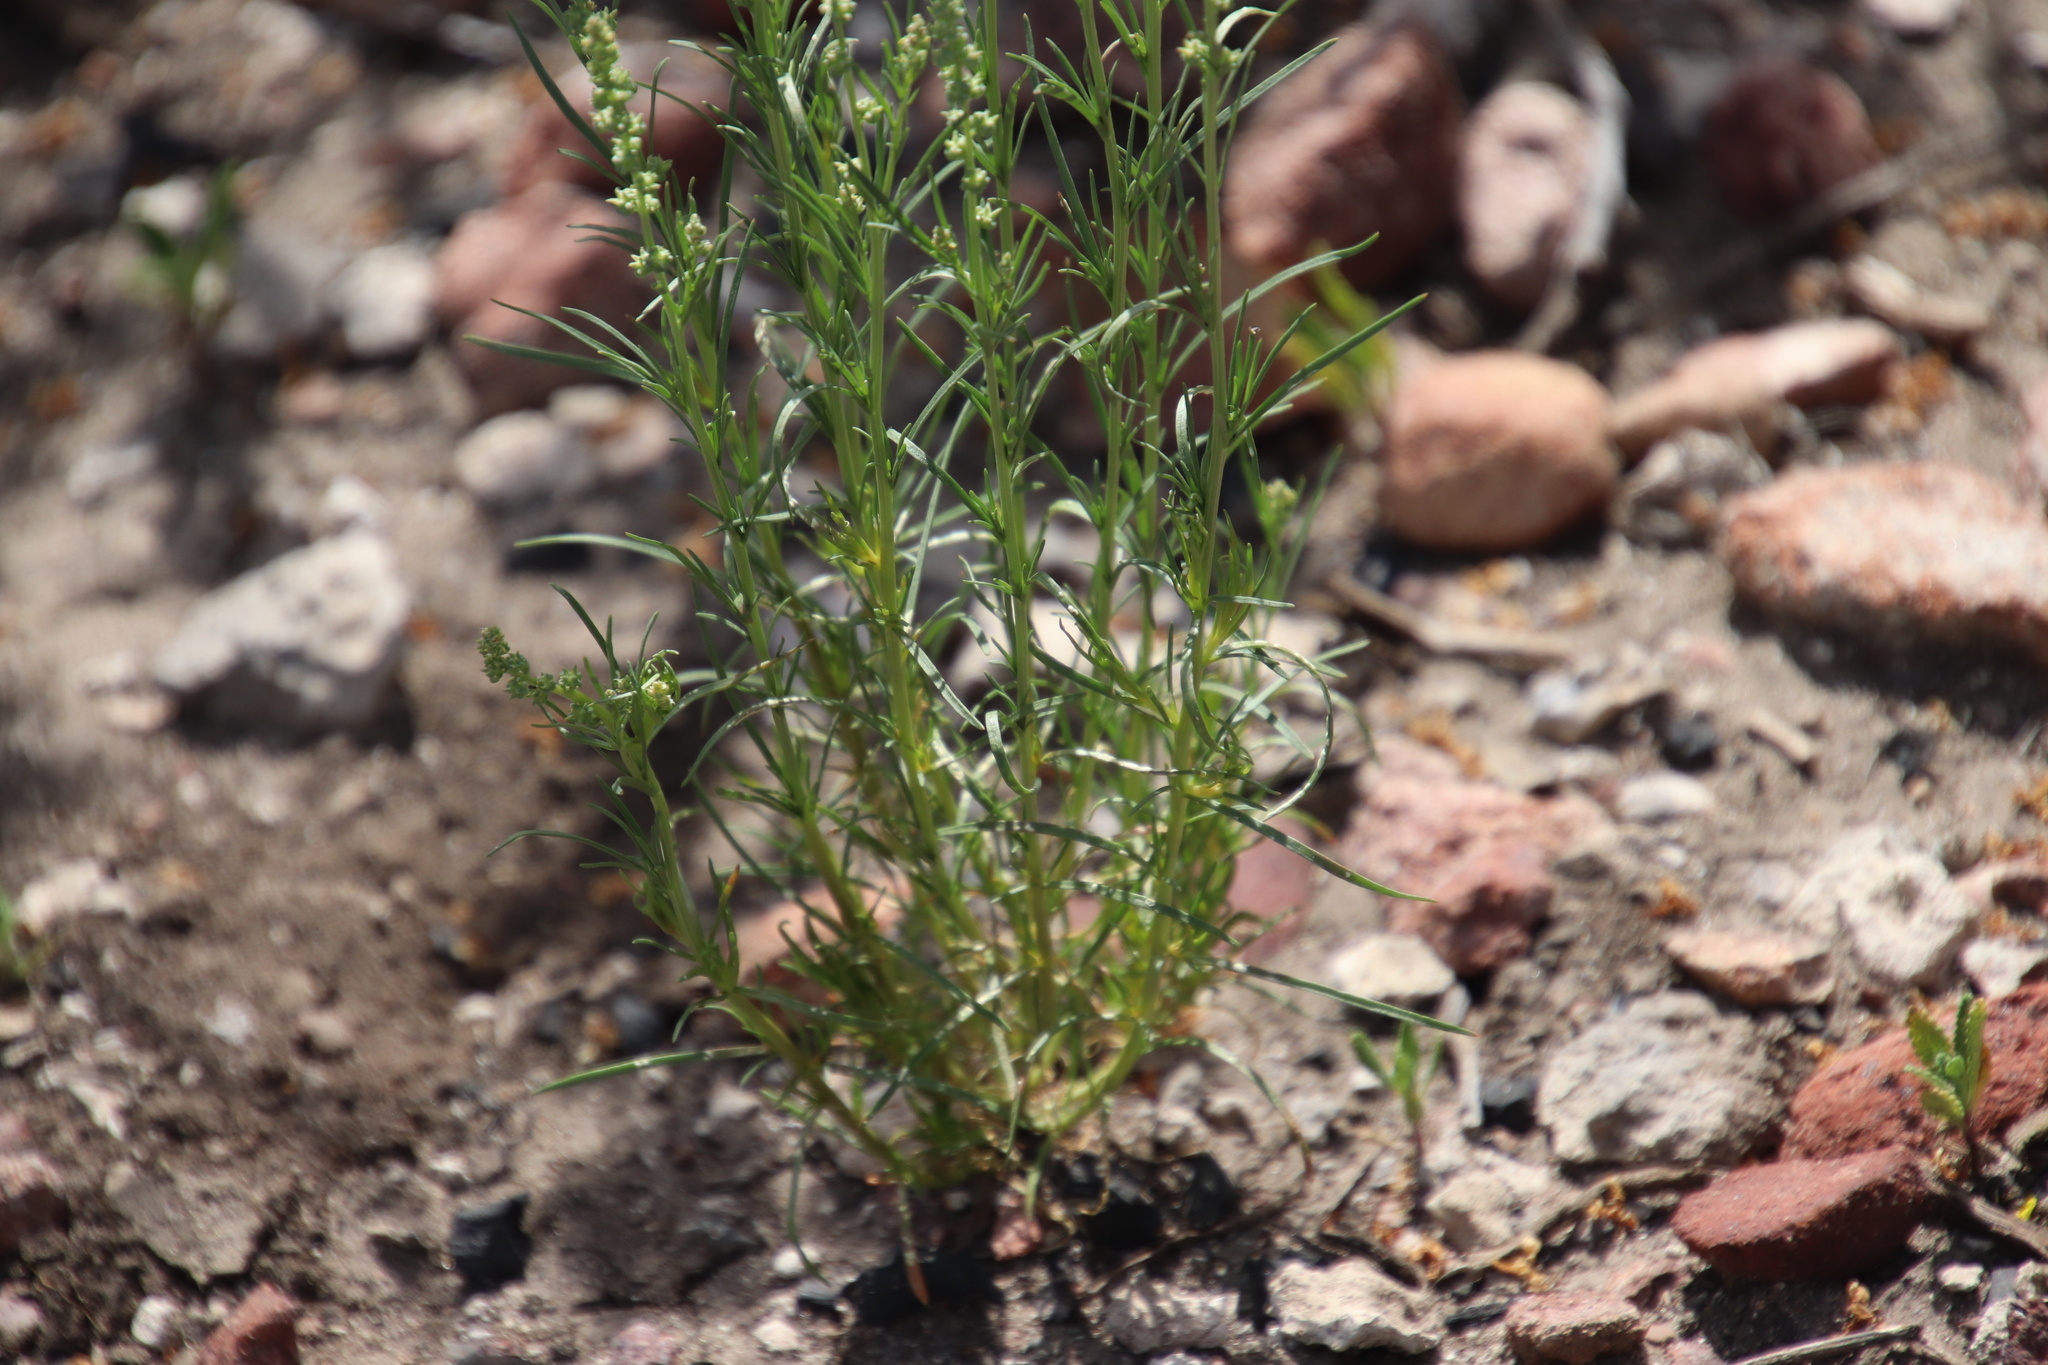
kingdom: Plantae
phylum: Tracheophyta
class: Magnoliopsida
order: Brassicales
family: Resedaceae
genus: Oligomeris
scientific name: Oligomeris linifolia
